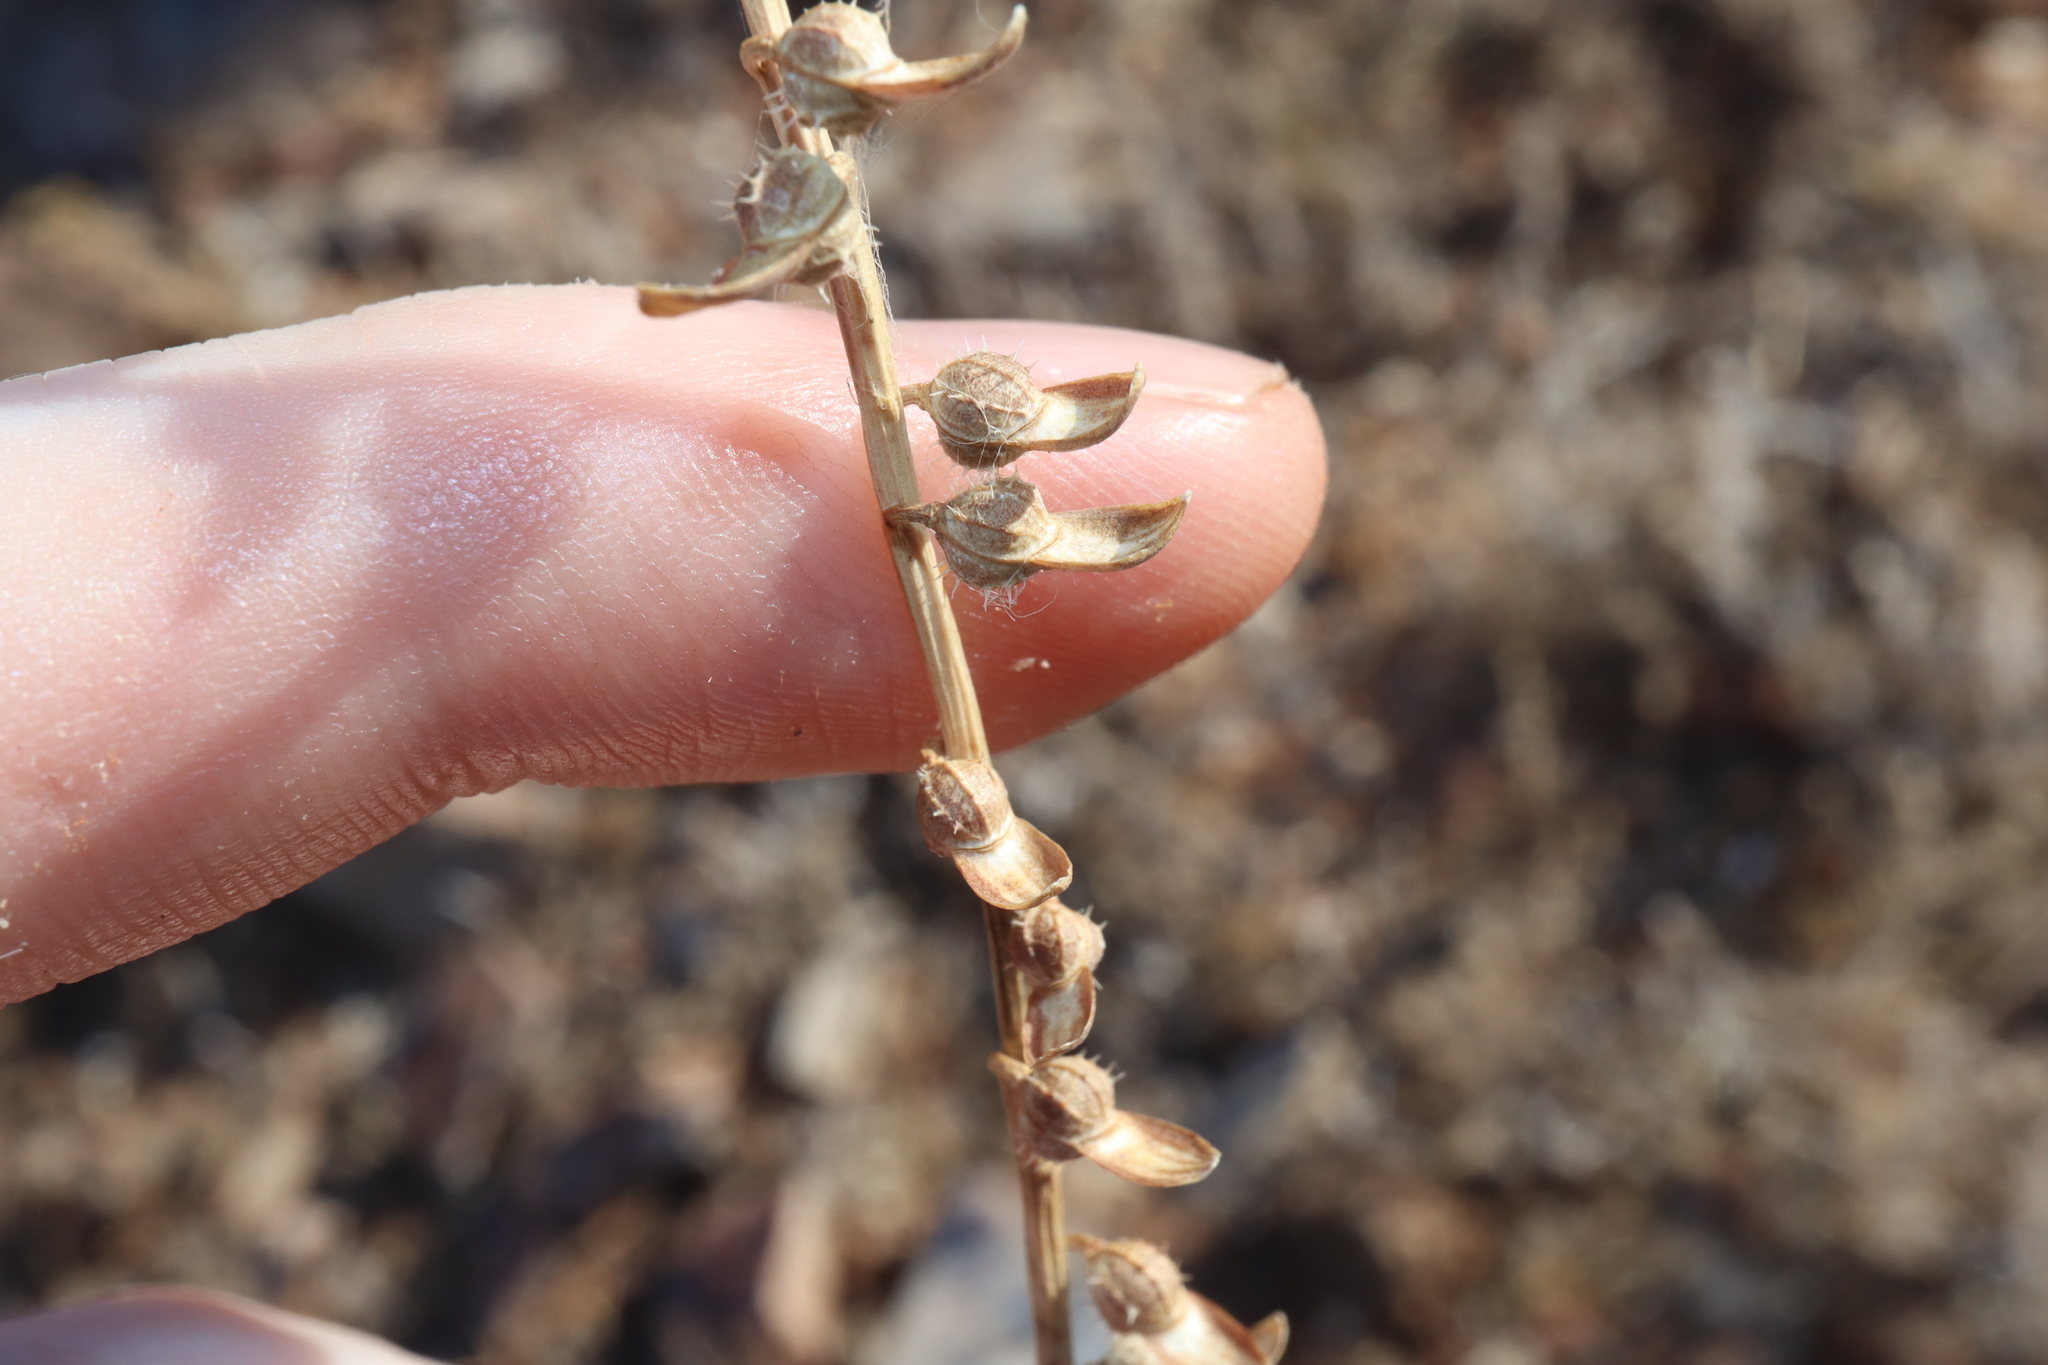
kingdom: Plantae
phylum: Tracheophyta
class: Magnoliopsida
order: Brassicales
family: Brassicaceae
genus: Carrichtera
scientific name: Carrichtera annua
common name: Cress rocket
